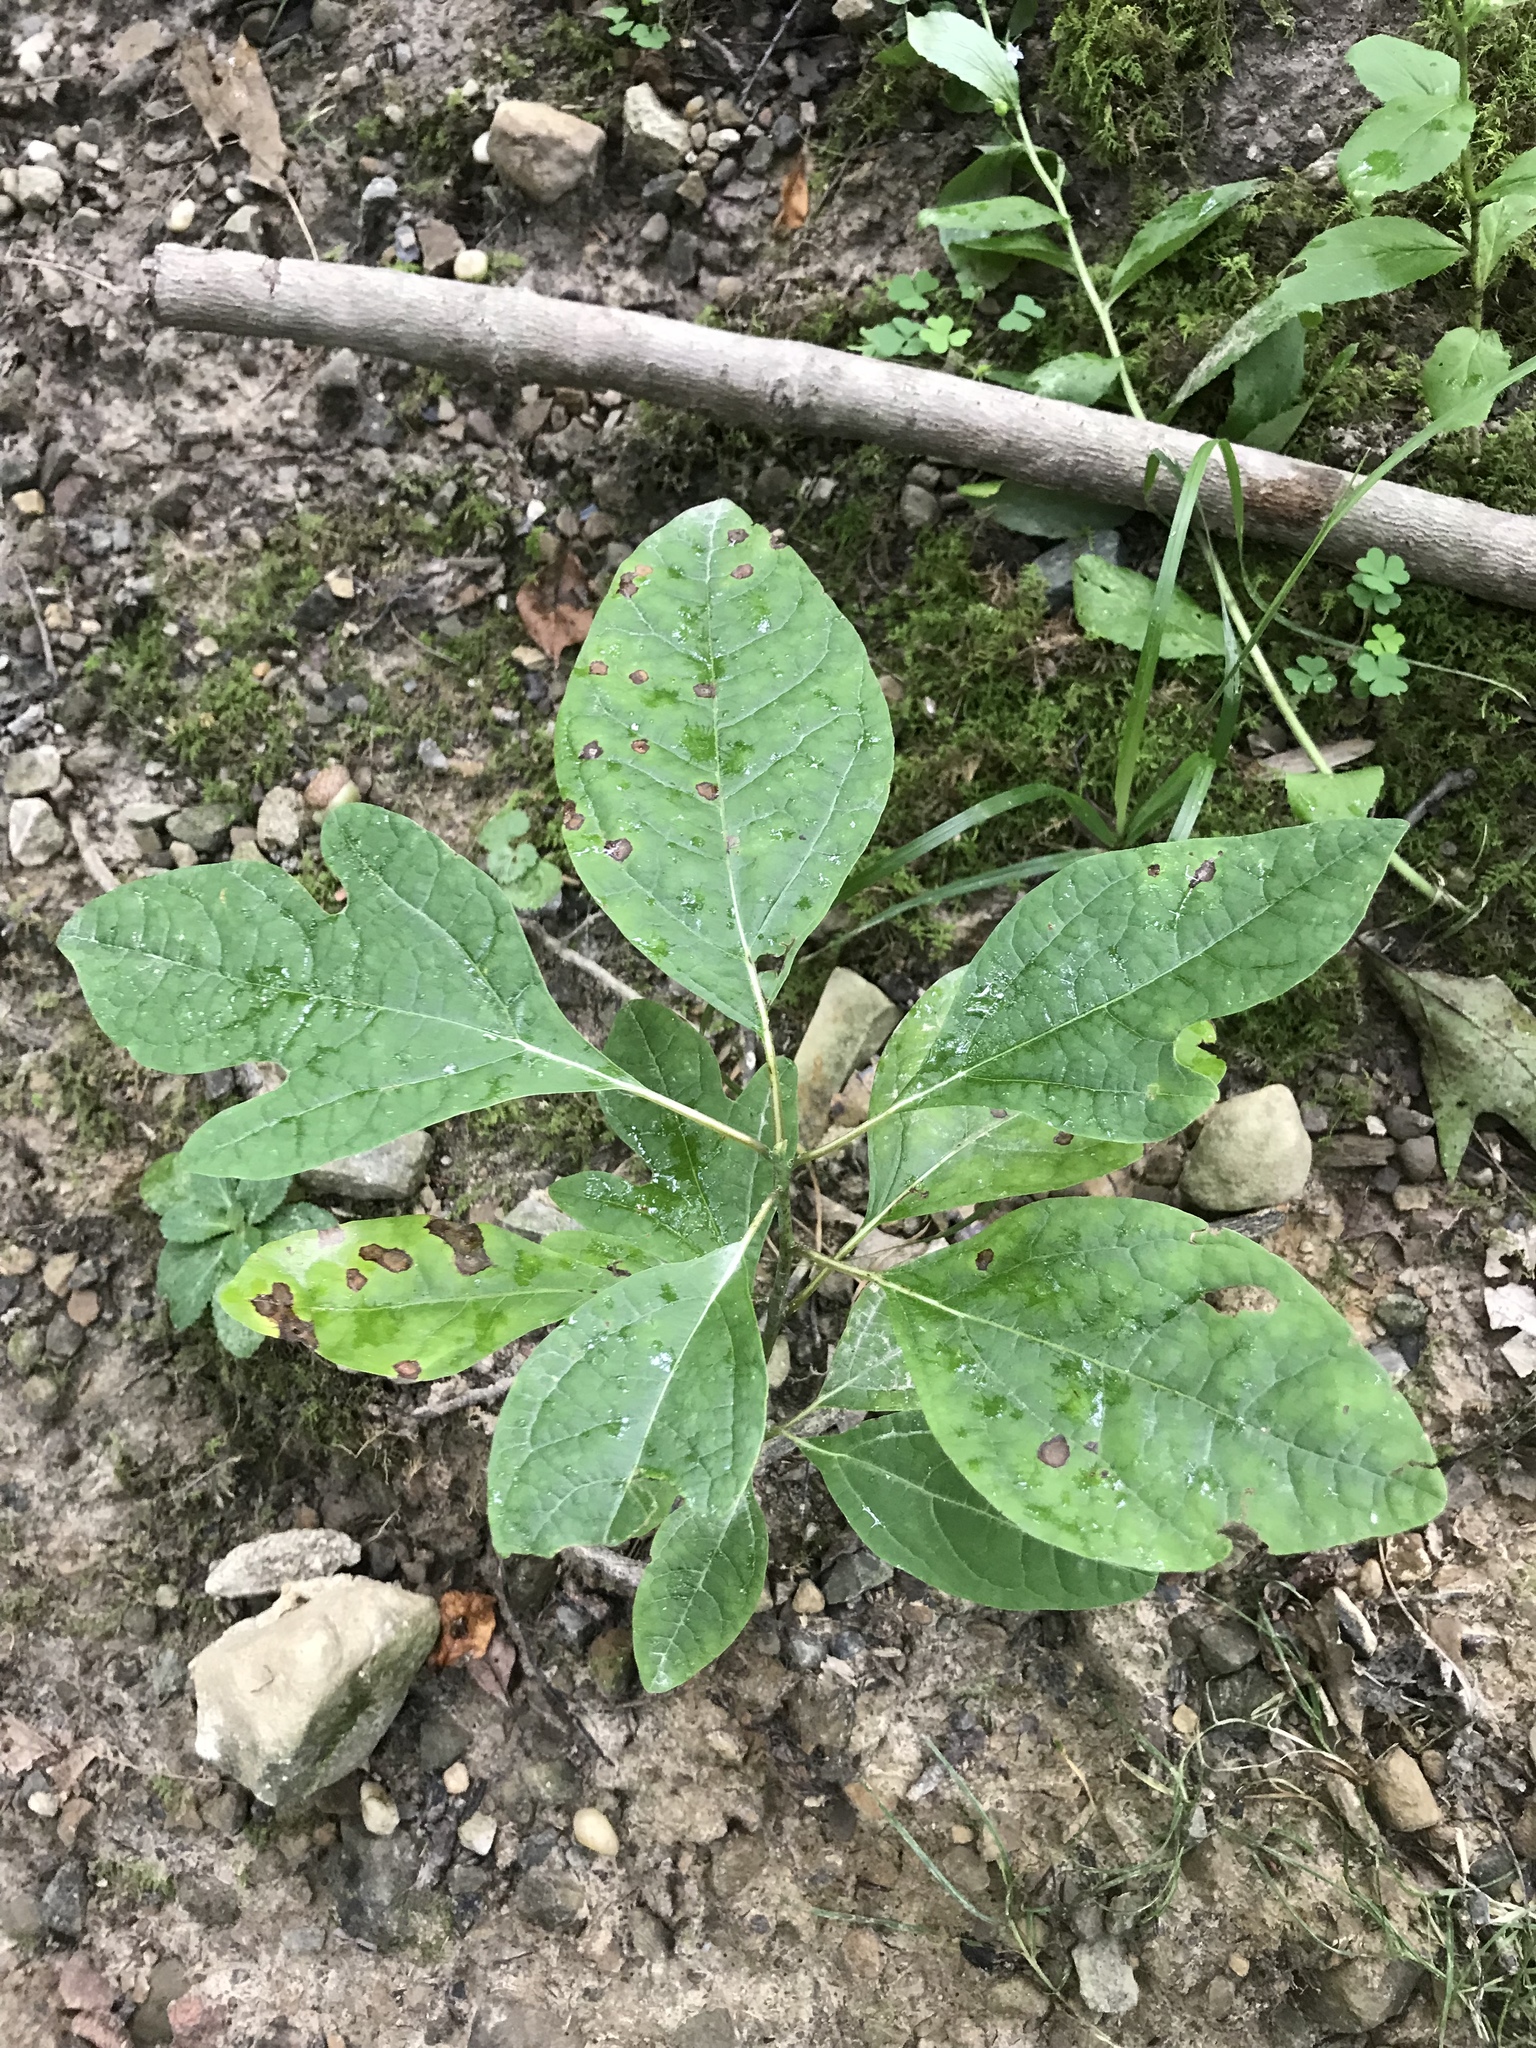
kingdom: Plantae
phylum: Tracheophyta
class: Magnoliopsida
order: Laurales
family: Lauraceae
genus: Sassafras
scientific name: Sassafras albidum
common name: Sassafras
